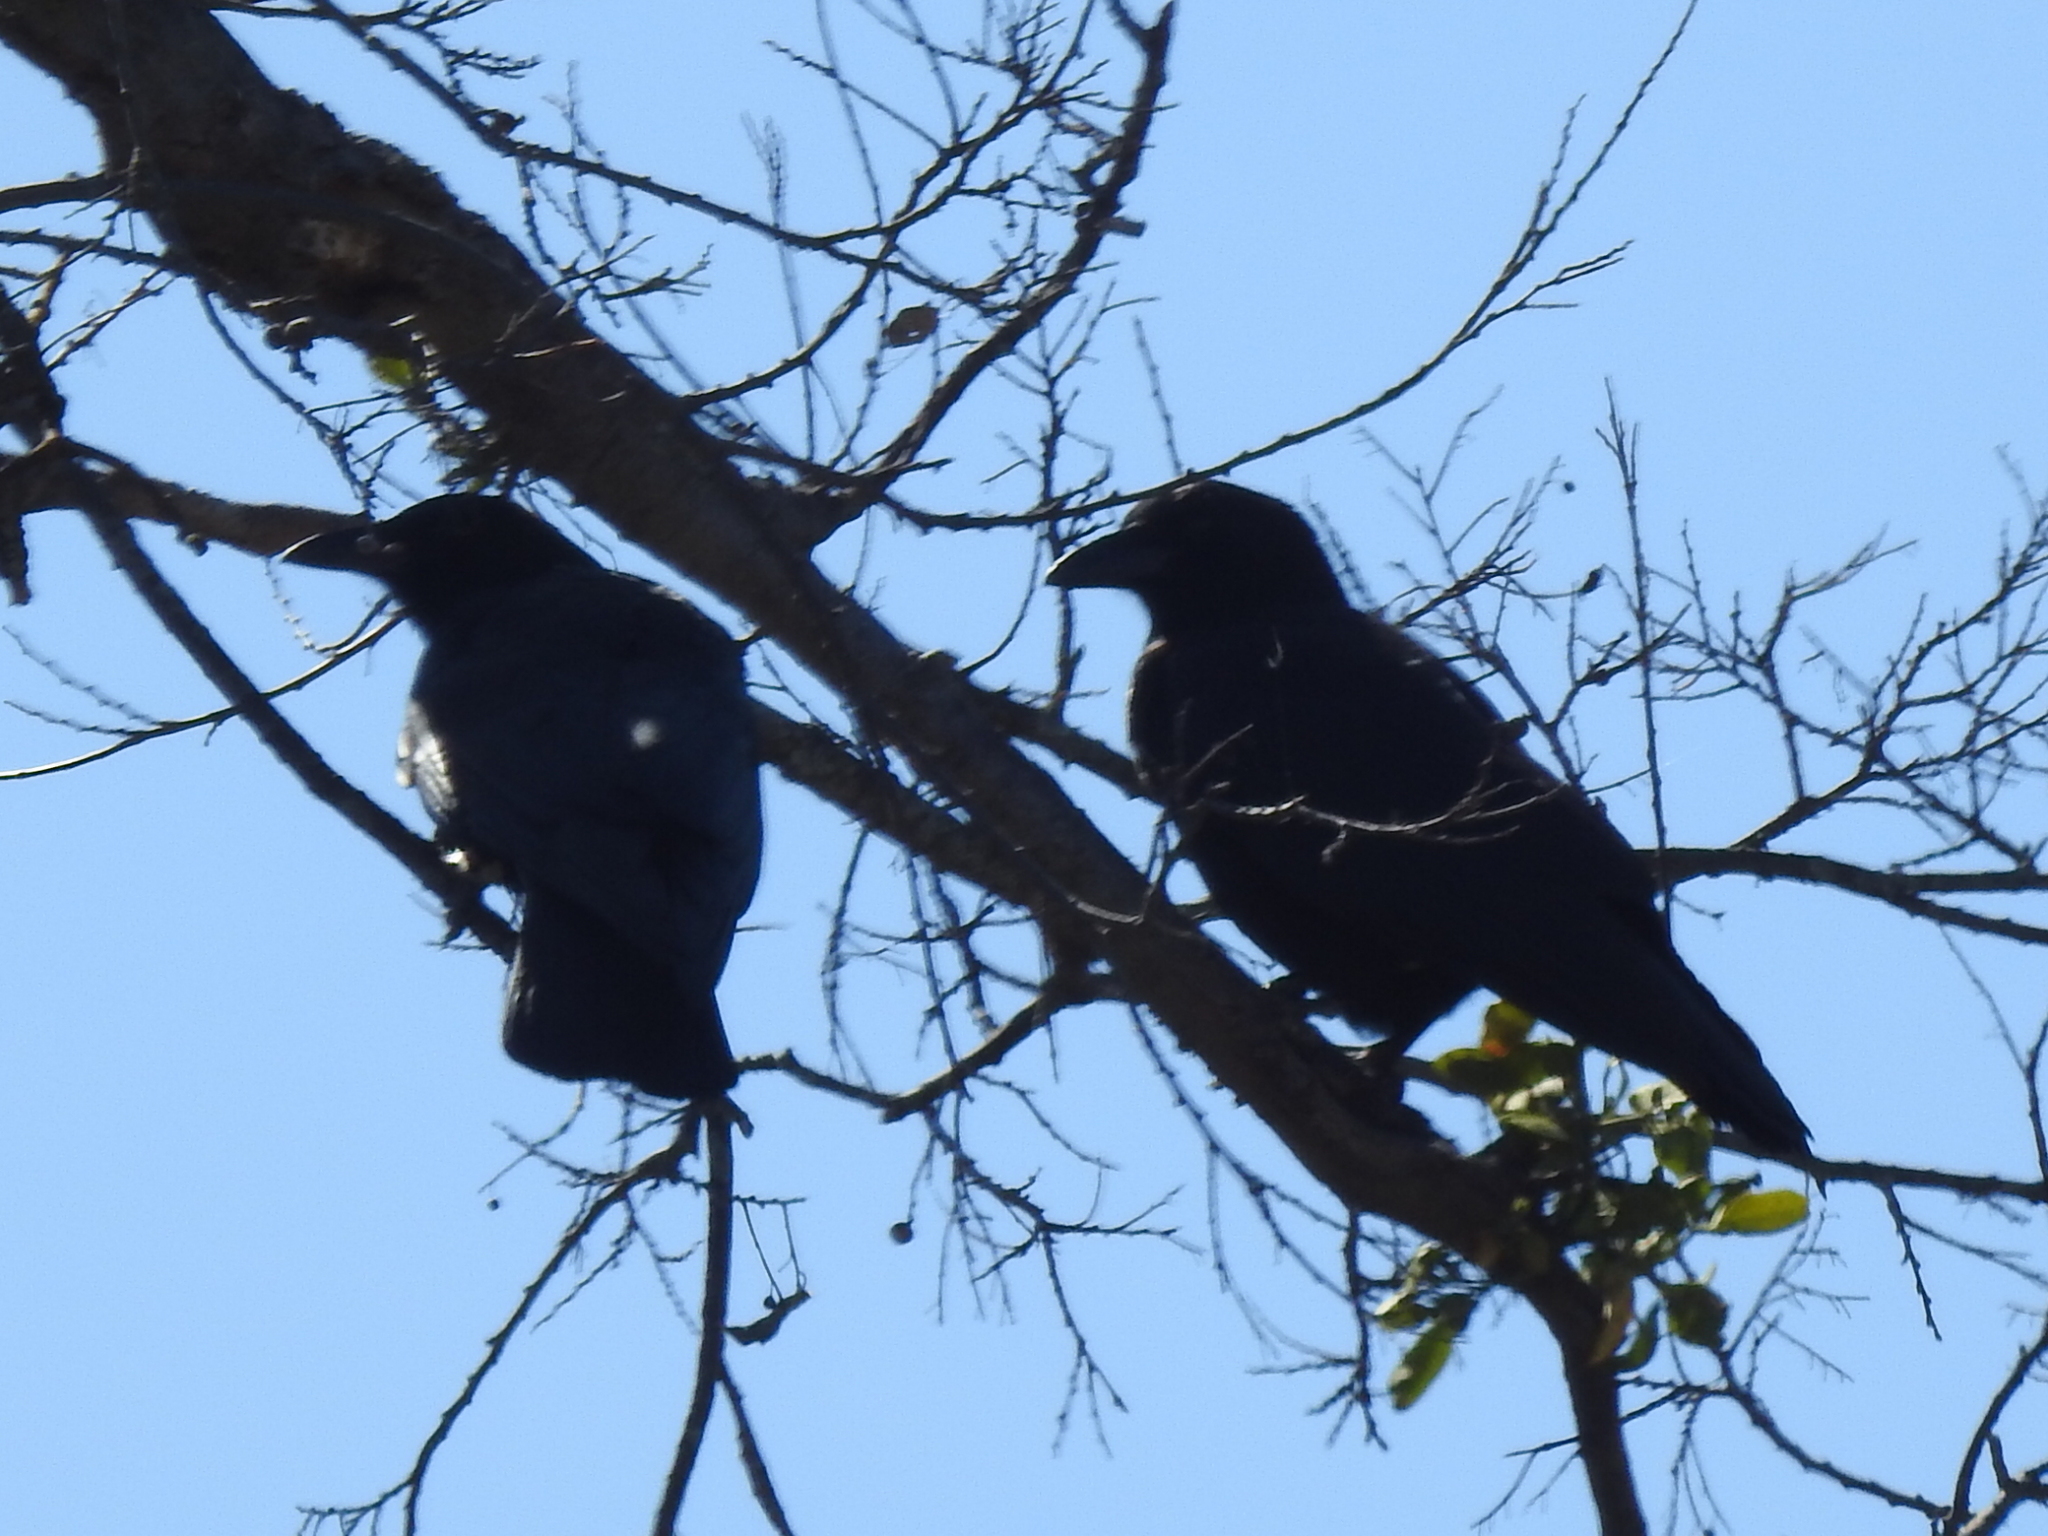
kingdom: Animalia
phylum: Chordata
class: Aves
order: Passeriformes
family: Corvidae
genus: Corvus
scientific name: Corvus brachyrhynchos
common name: American crow
